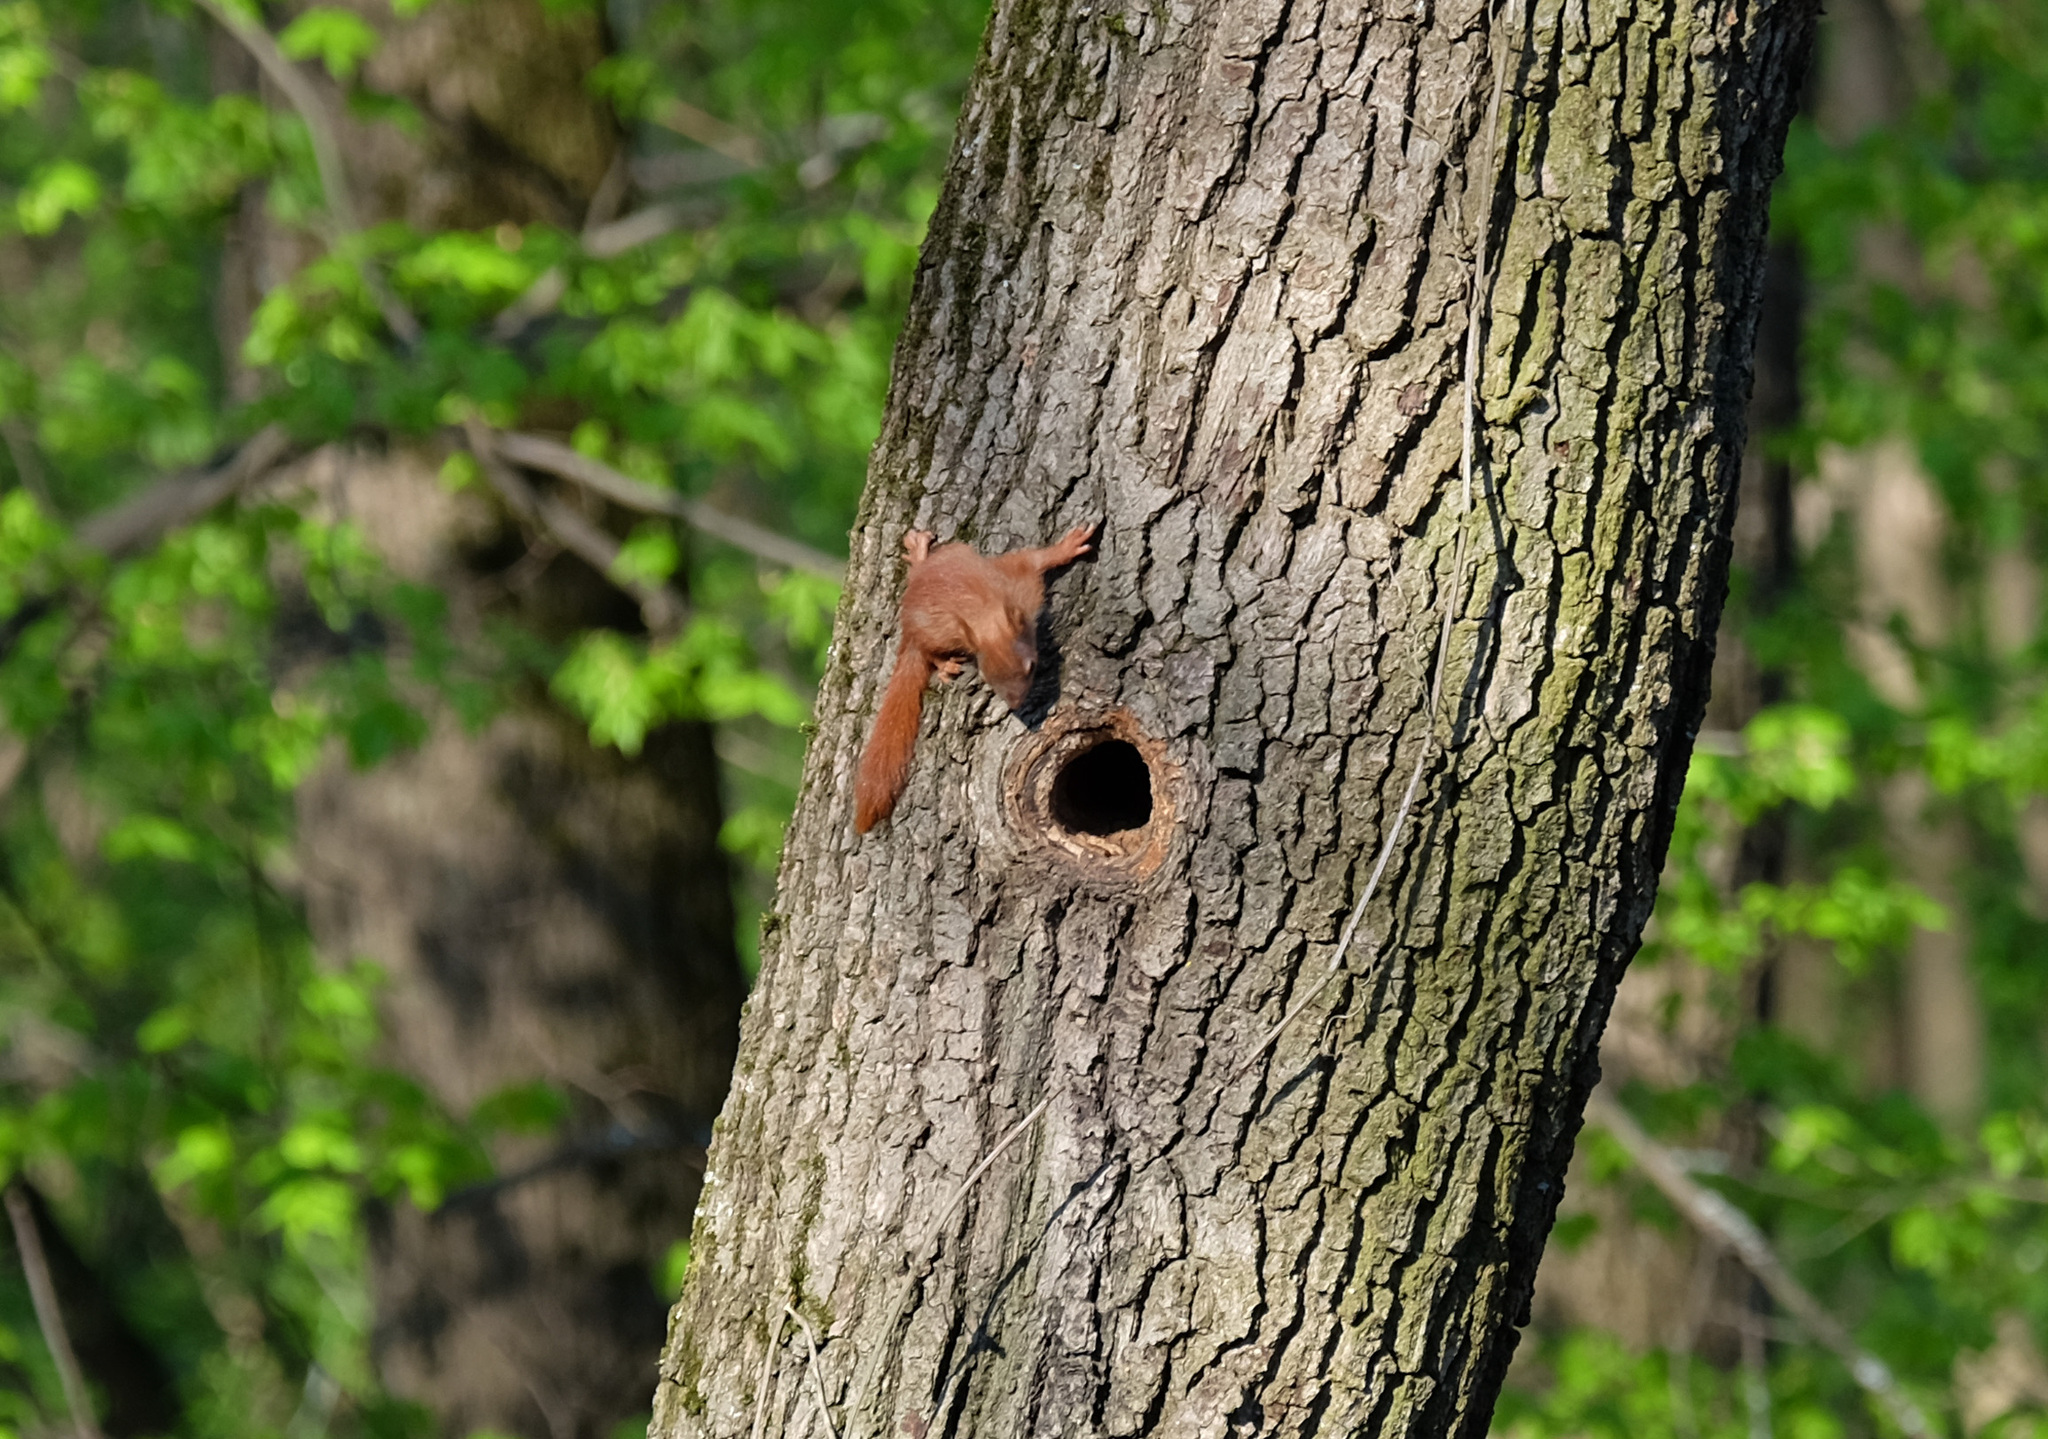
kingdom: Animalia
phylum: Chordata
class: Mammalia
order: Rodentia
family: Sciuridae
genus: Sciurus
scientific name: Sciurus vulgaris
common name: Eurasian red squirrel
